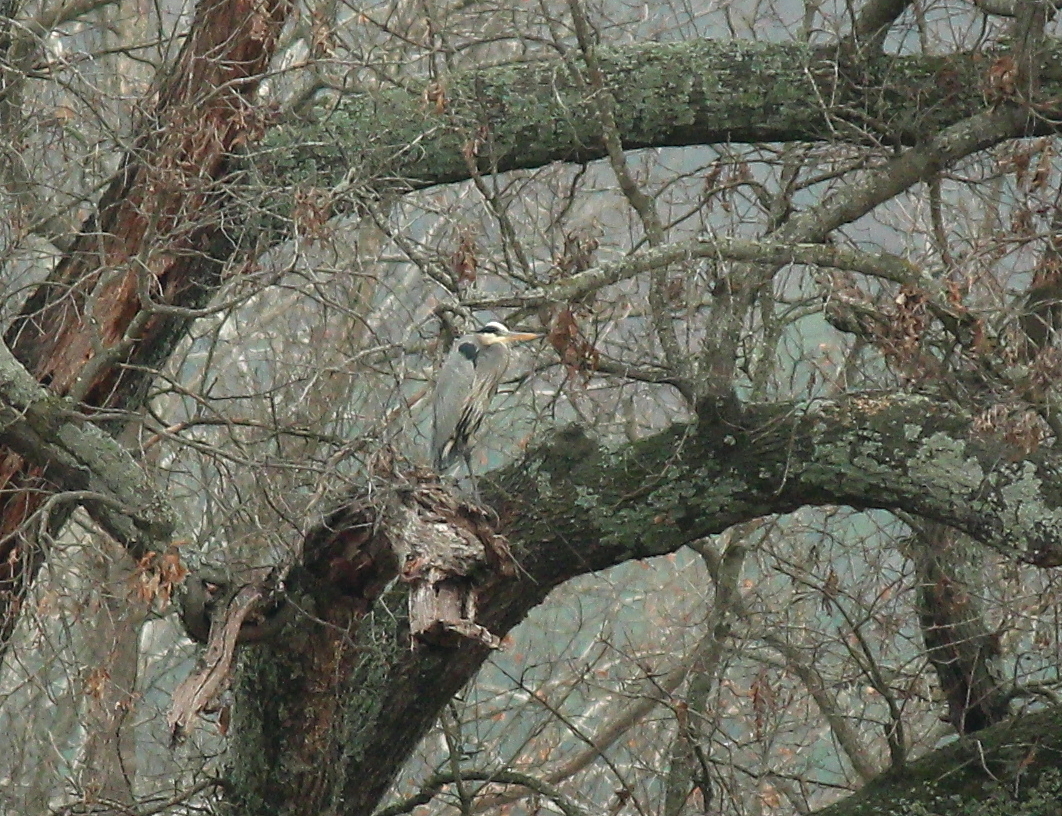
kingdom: Animalia
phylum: Chordata
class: Aves
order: Pelecaniformes
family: Ardeidae
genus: Ardea
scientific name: Ardea herodias
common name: Great blue heron
